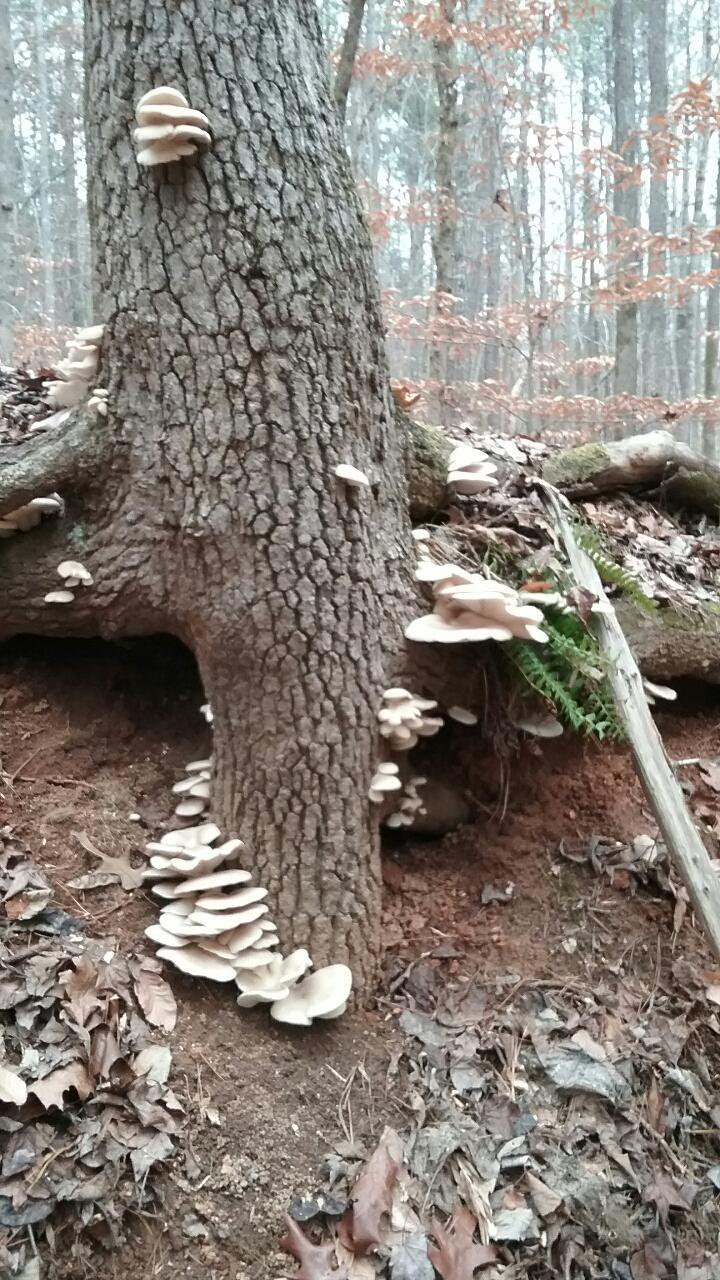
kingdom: Fungi
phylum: Basidiomycota
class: Agaricomycetes
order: Agaricales
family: Pleurotaceae
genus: Pleurotus
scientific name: Pleurotus ostreatus
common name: Oyster mushroom
